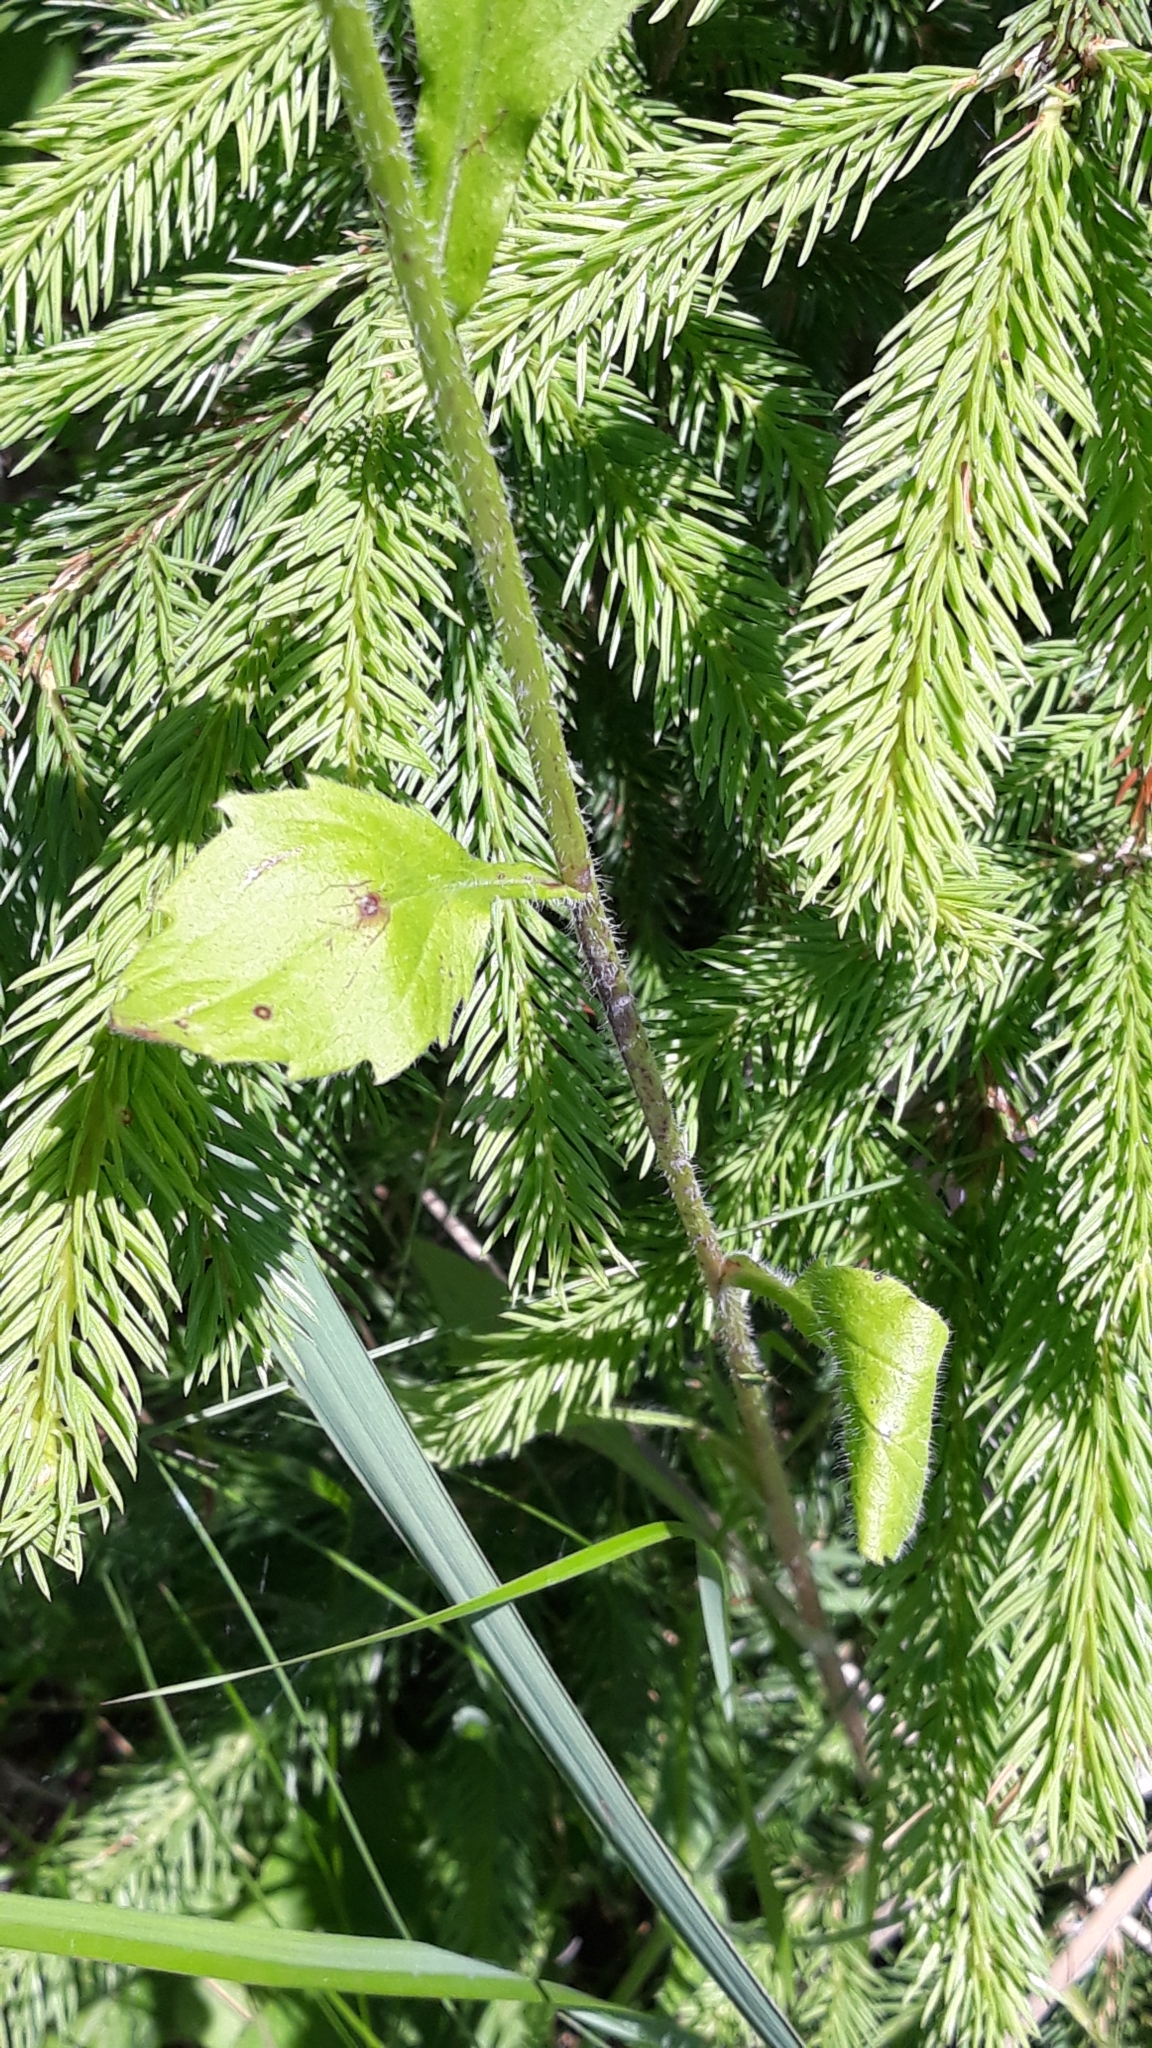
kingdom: Plantae
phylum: Tracheophyta
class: Magnoliopsida
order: Asterales
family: Asteraceae
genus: Erigeron
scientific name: Erigeron annuus
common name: Tall fleabane
